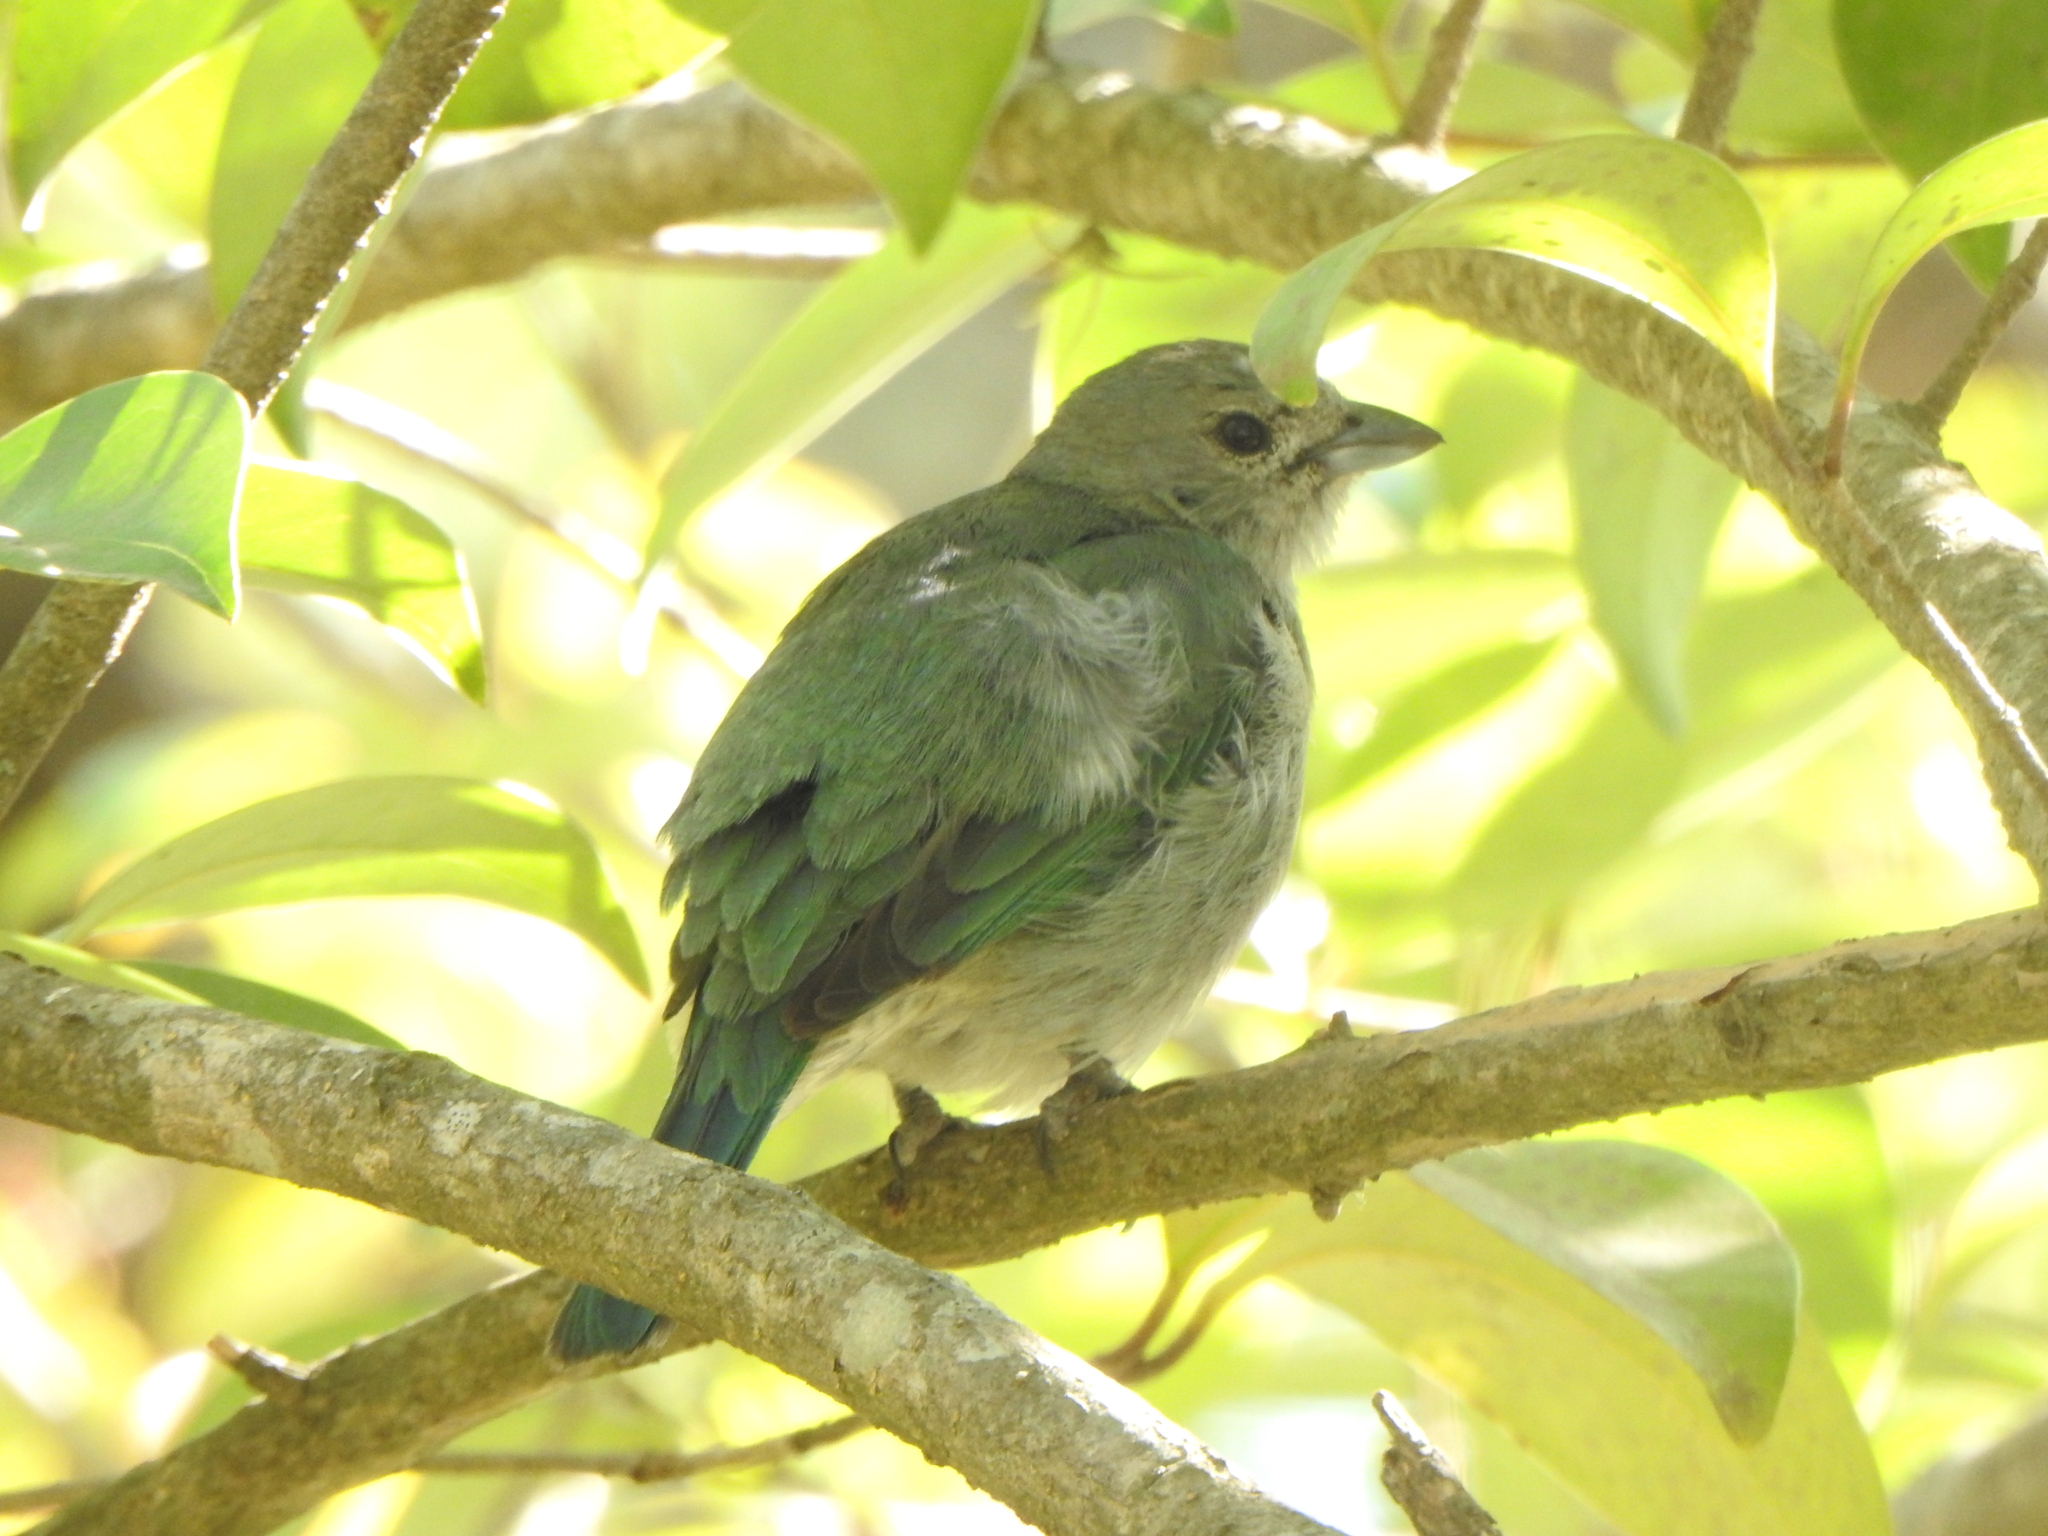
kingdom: Animalia
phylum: Chordata
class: Aves
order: Passeriformes
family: Thraupidae
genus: Thraupis
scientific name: Thraupis sayaca
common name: Sayaca tanager
